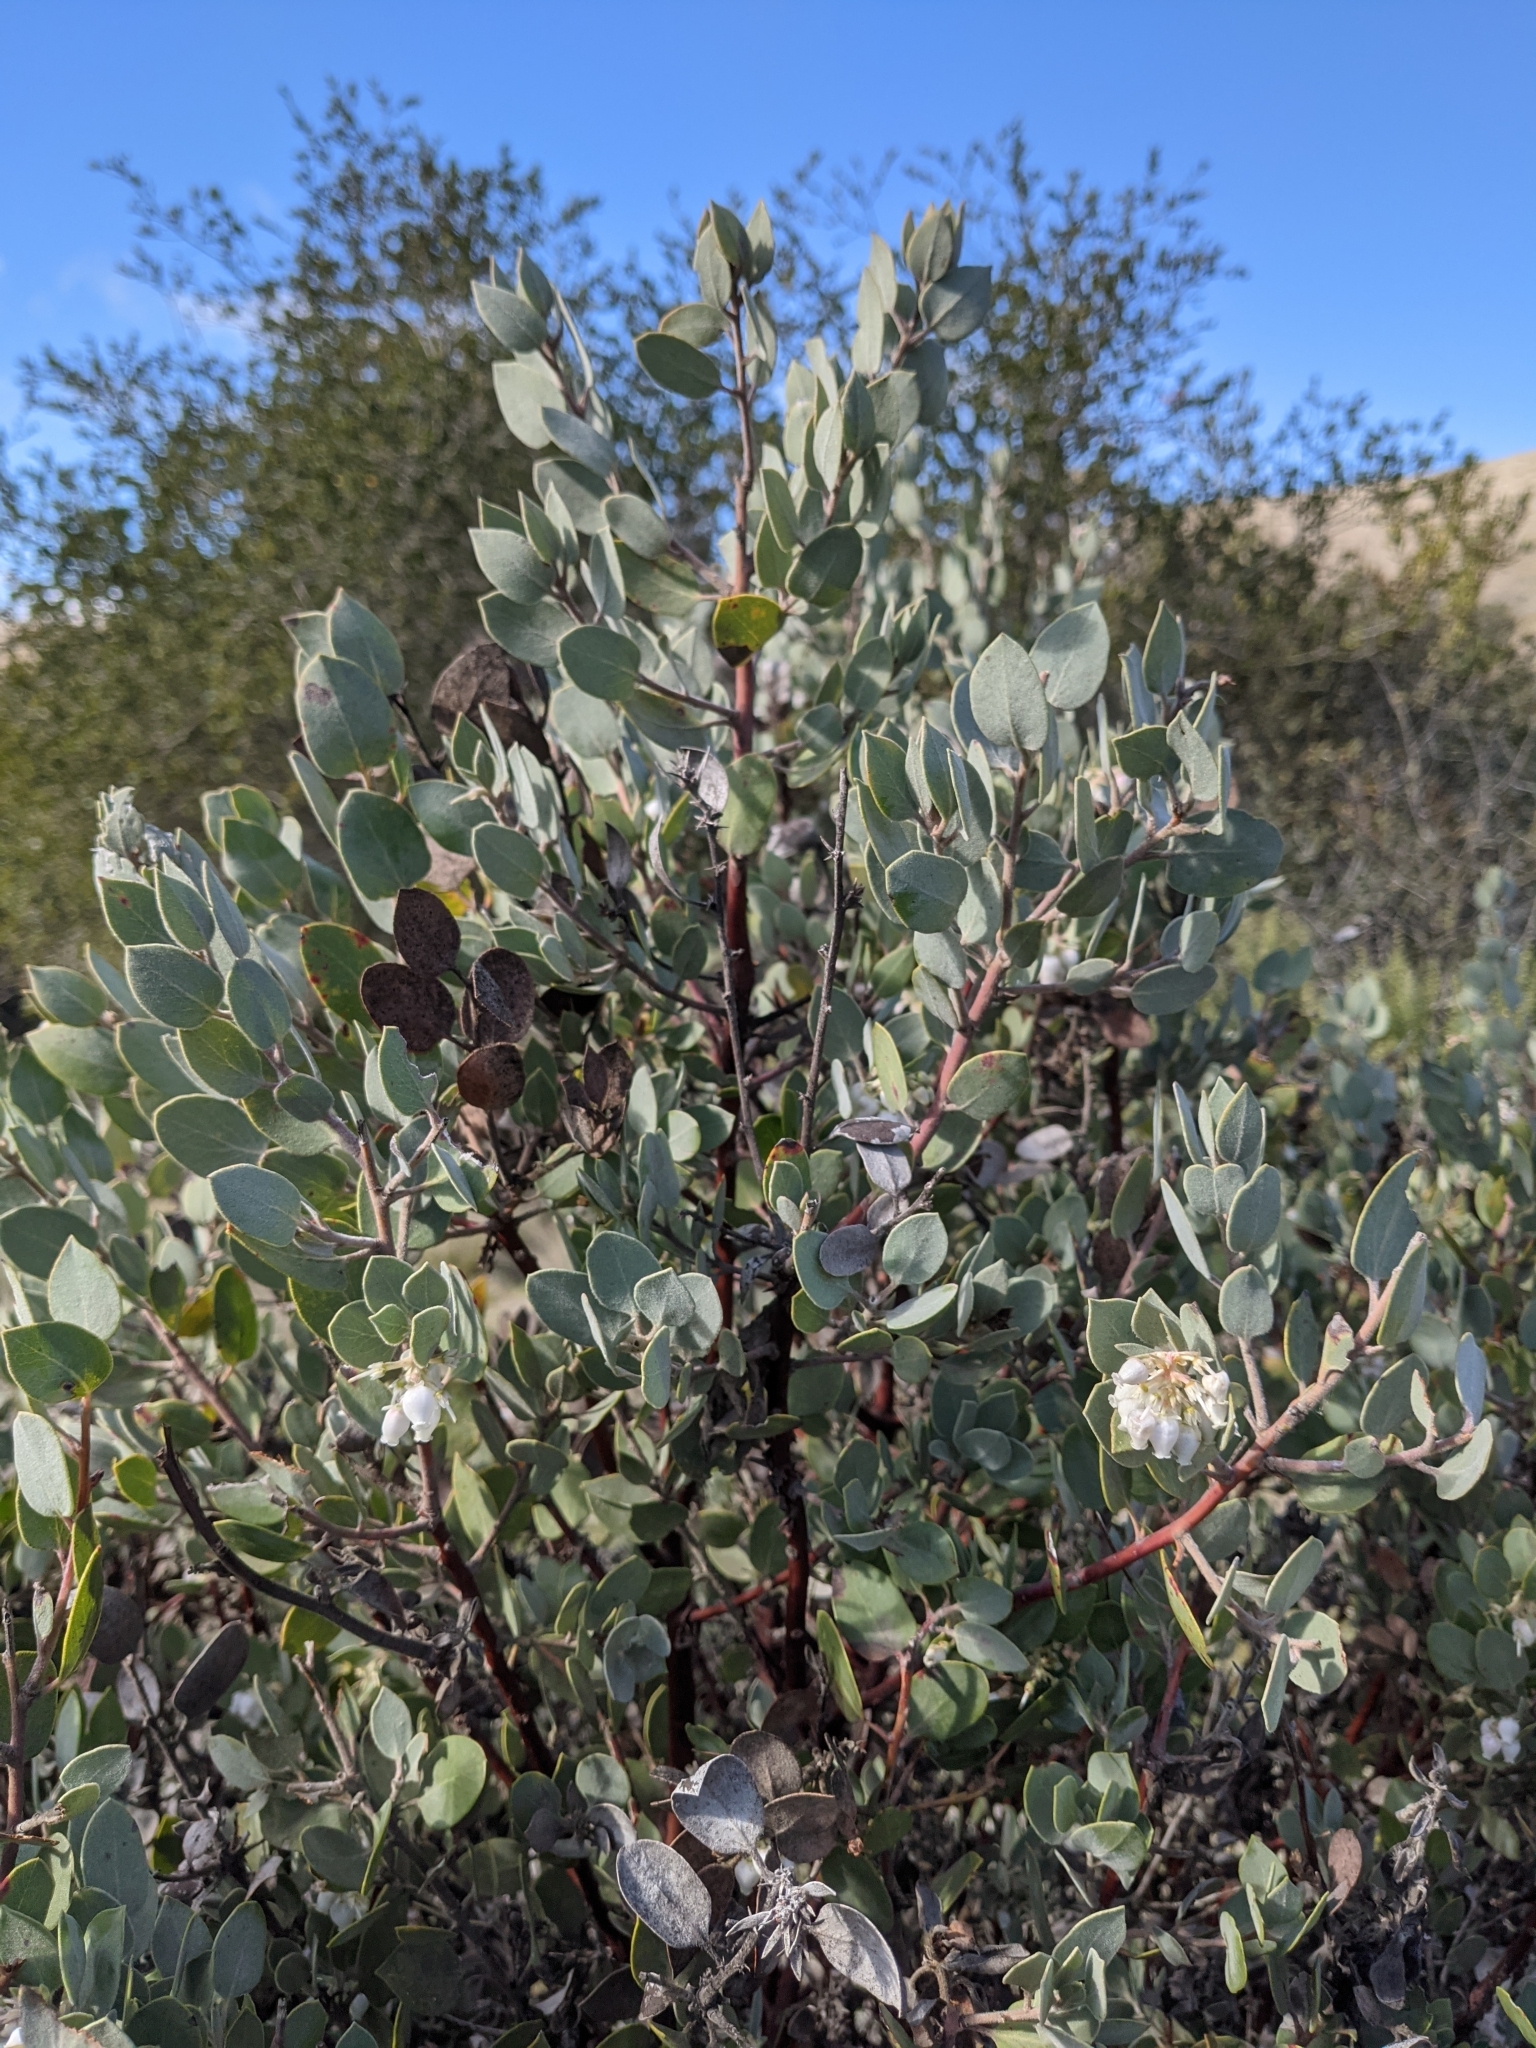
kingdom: Plantae
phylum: Tracheophyta
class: Magnoliopsida
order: Ericales
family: Ericaceae
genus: Arctostaphylos
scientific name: Arctostaphylos obispoensis
